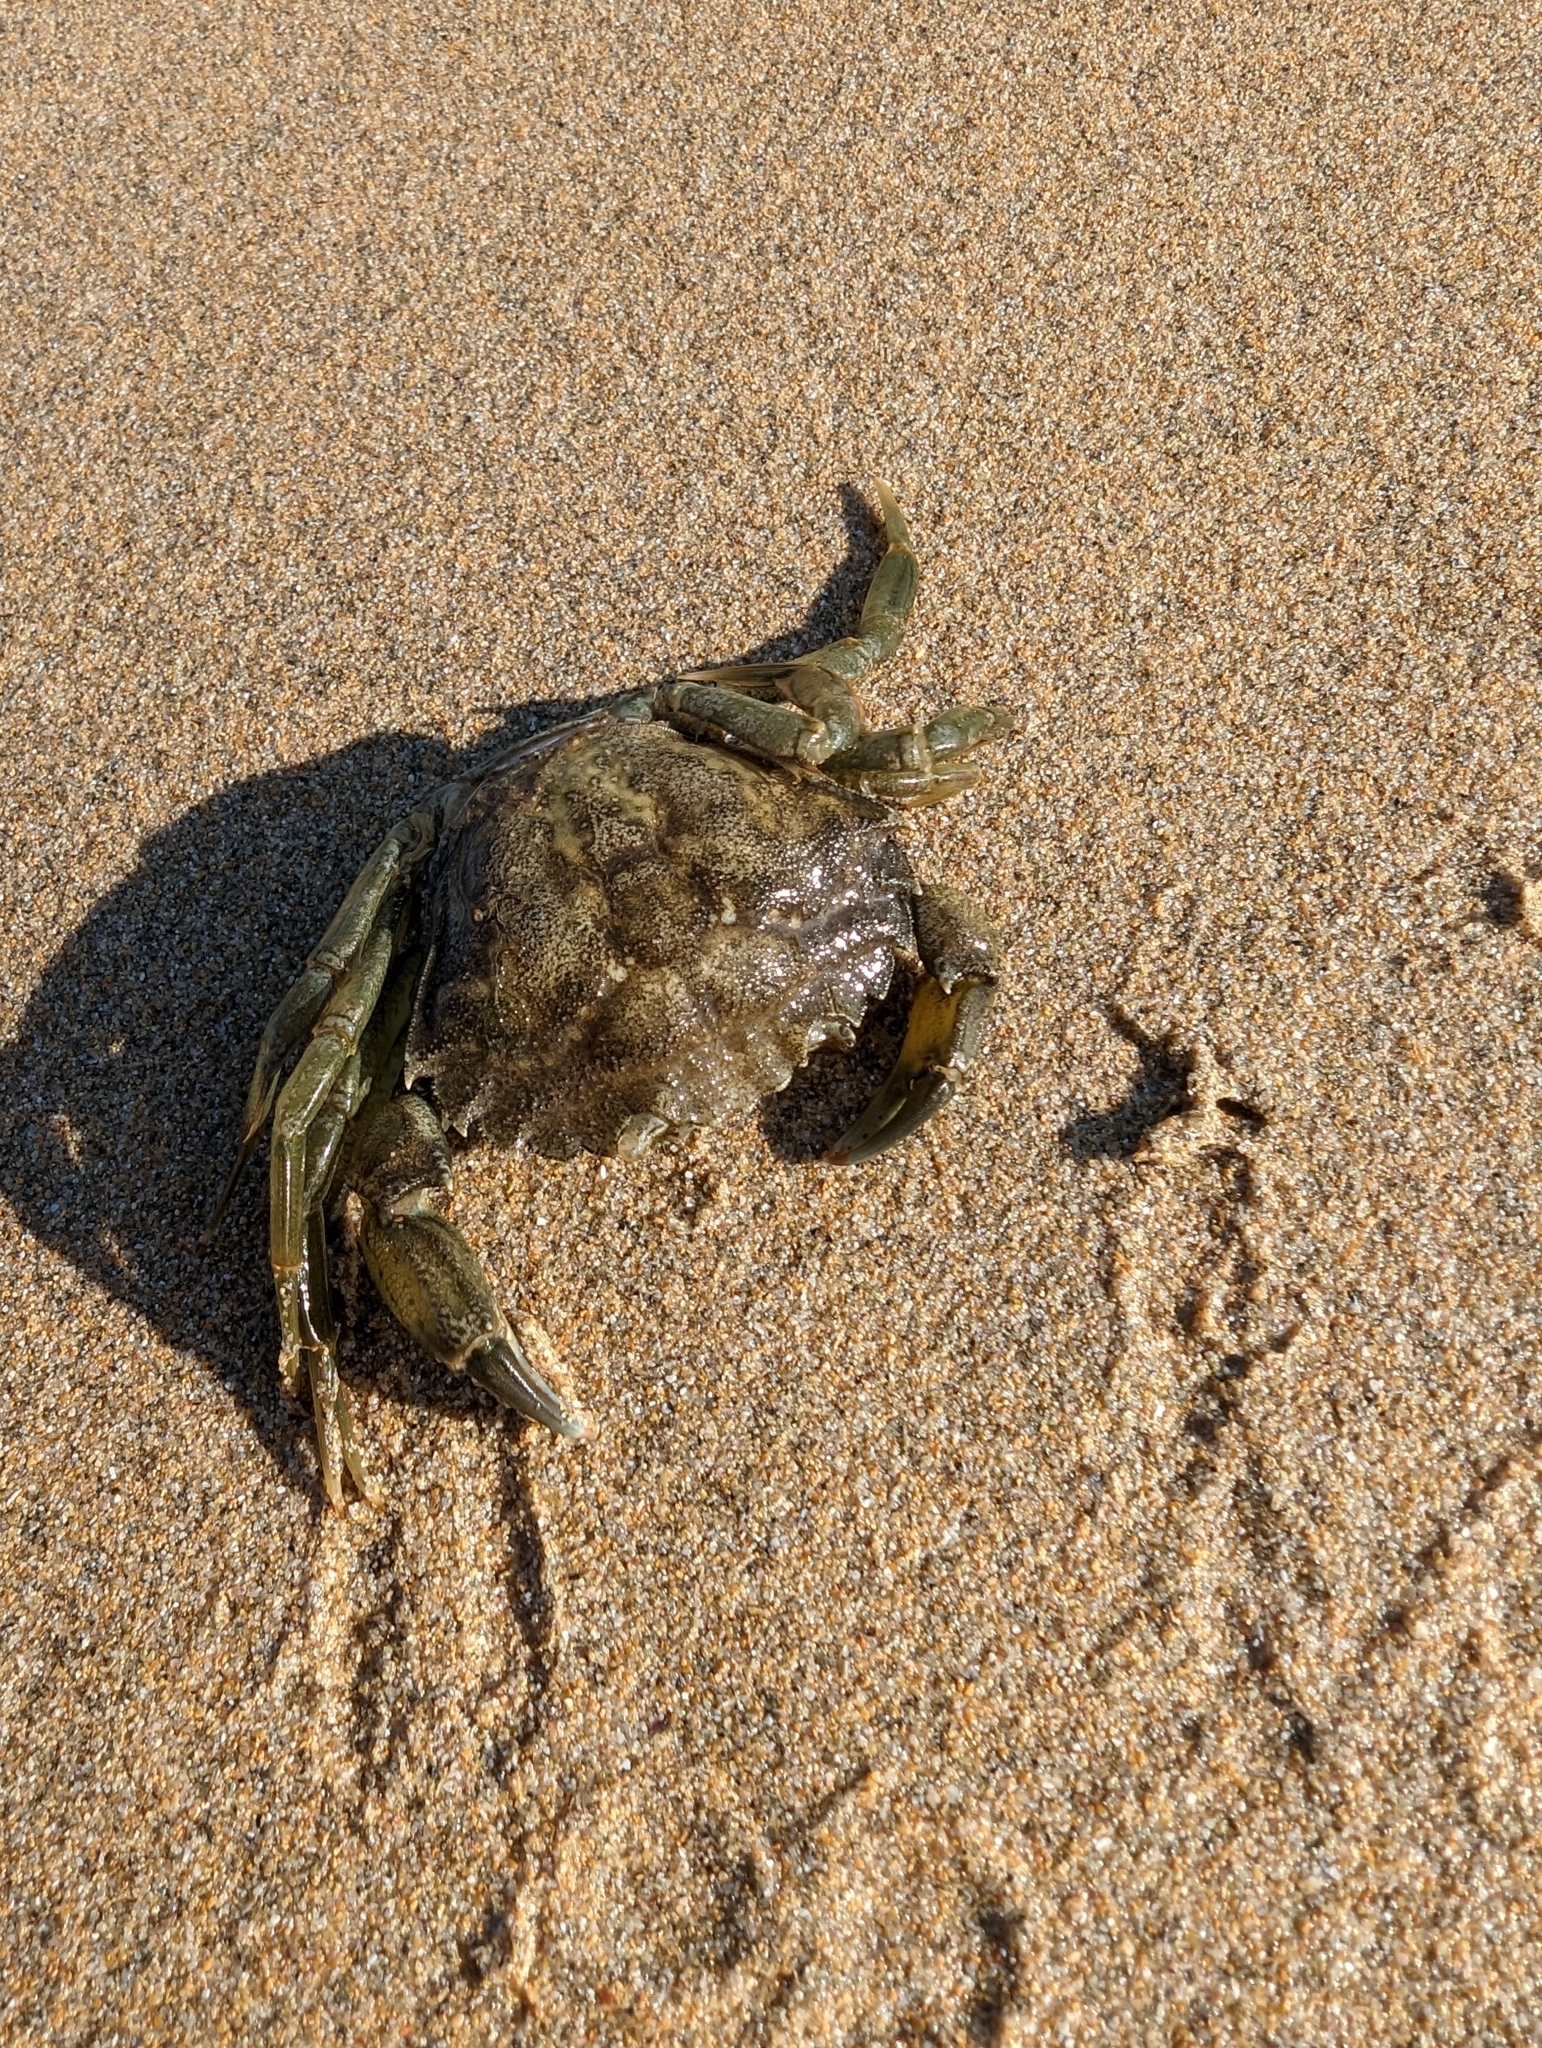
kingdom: Animalia
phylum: Arthropoda
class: Malacostraca
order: Decapoda
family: Carcinidae
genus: Carcinus
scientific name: Carcinus maenas
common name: European green crab
